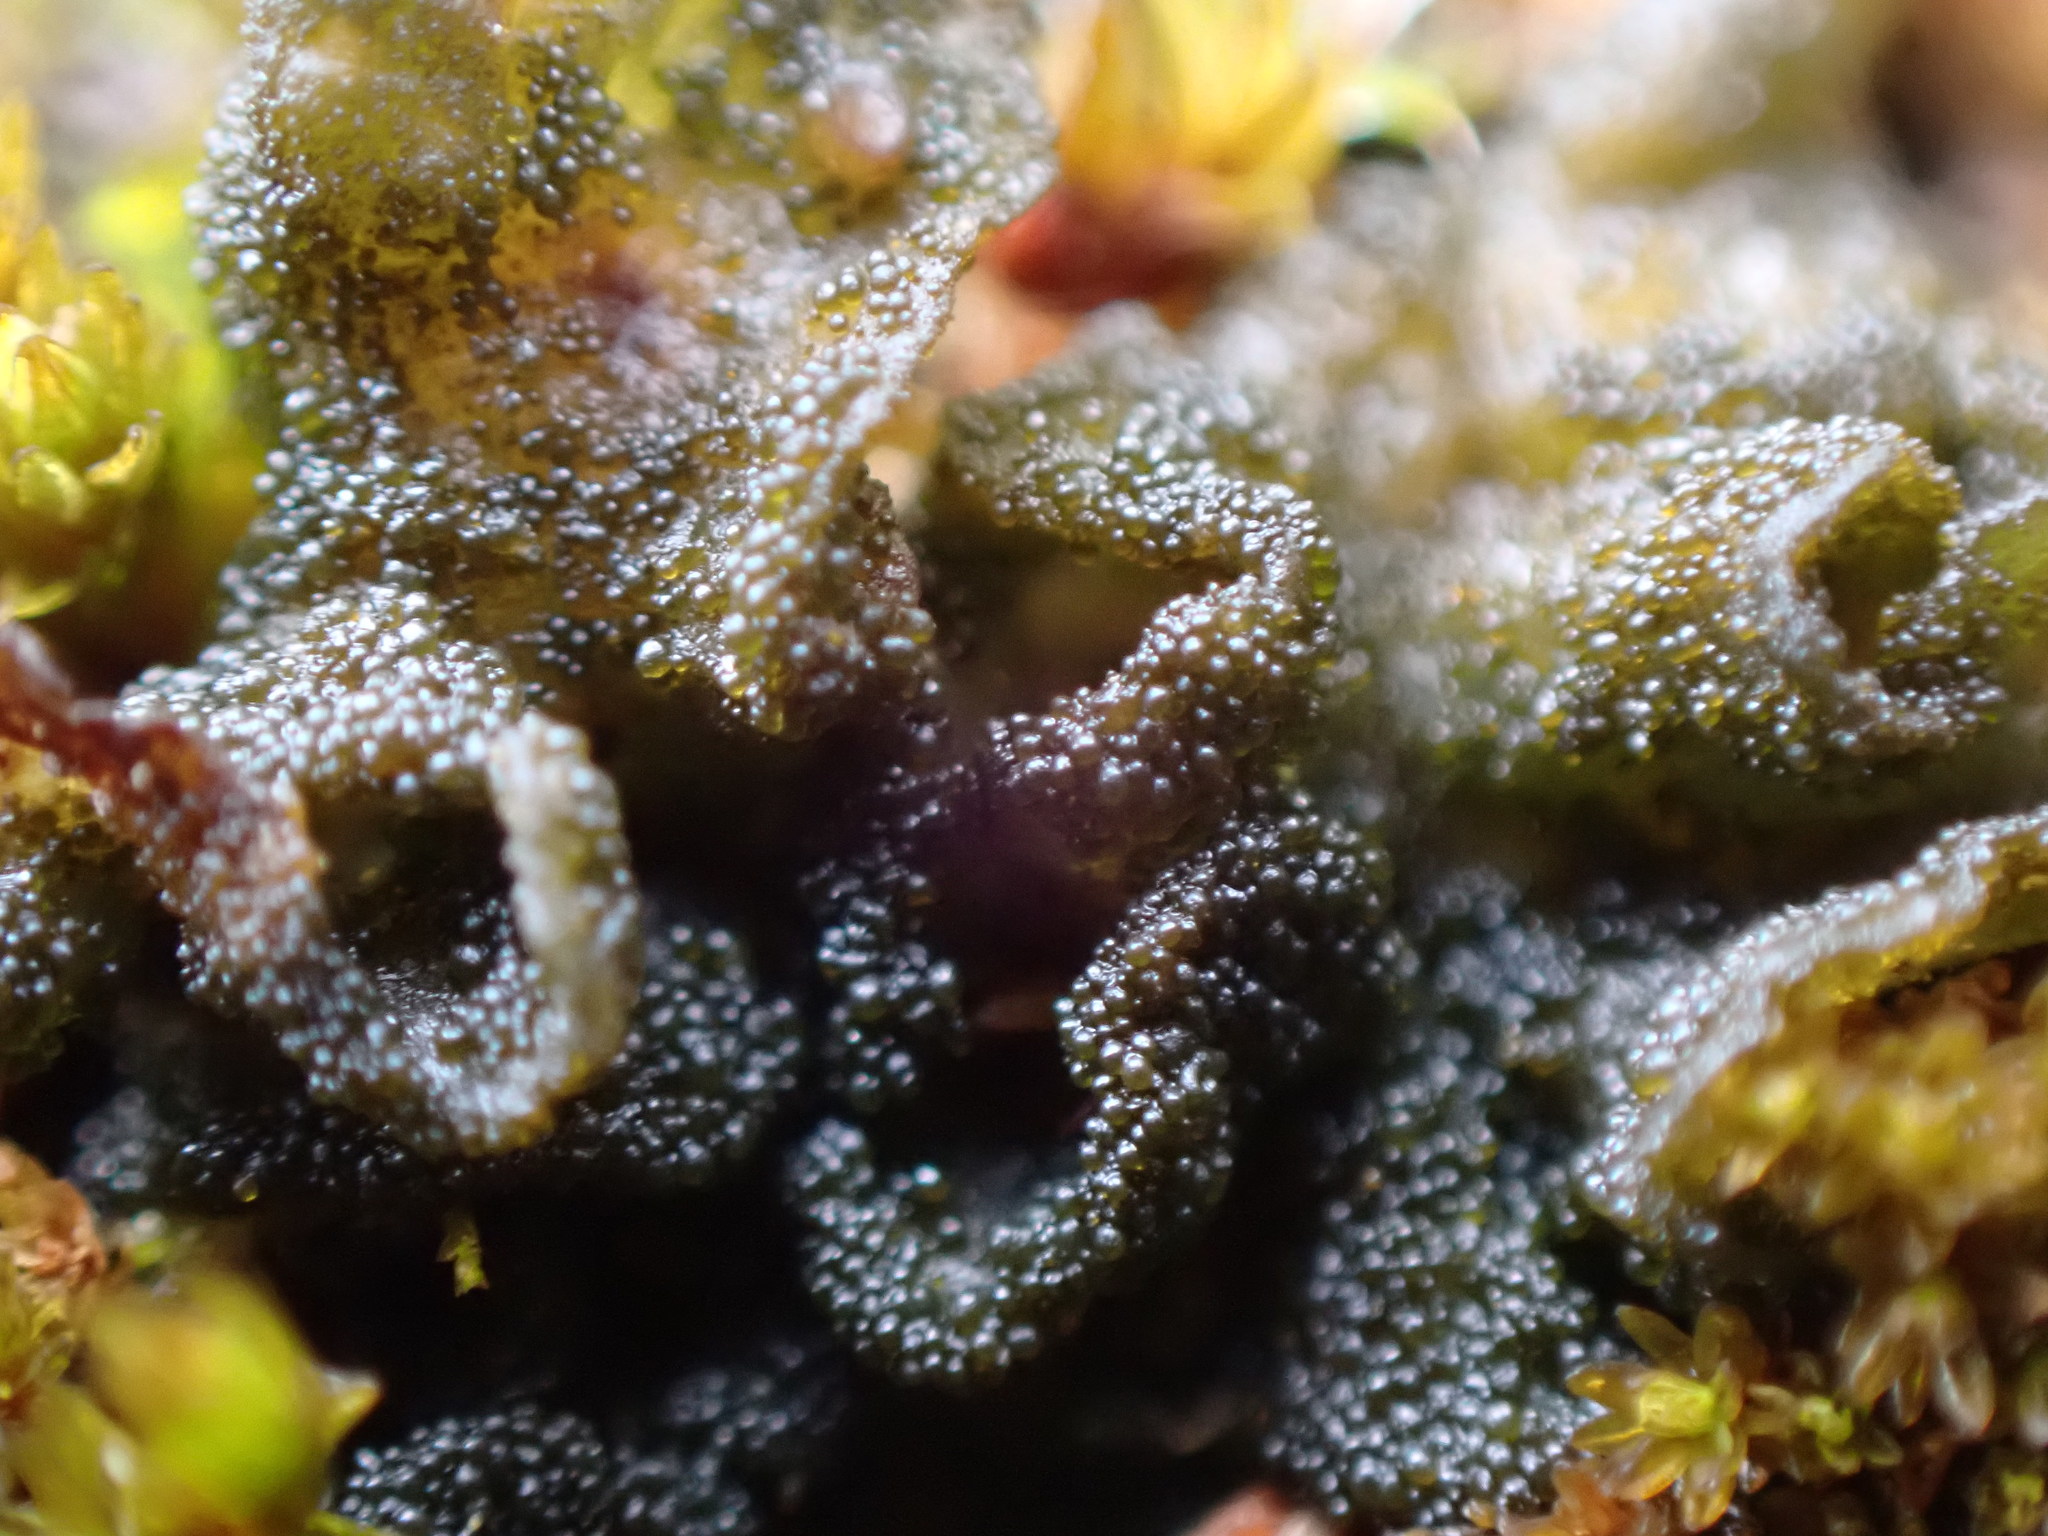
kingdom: Fungi
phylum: Ascomycota
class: Lecanoromycetes
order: Peltigerales
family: Collemataceae
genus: Lathagrium
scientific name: Lathagrium fuscovirens
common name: Crumpled rock tarpaper lichen
